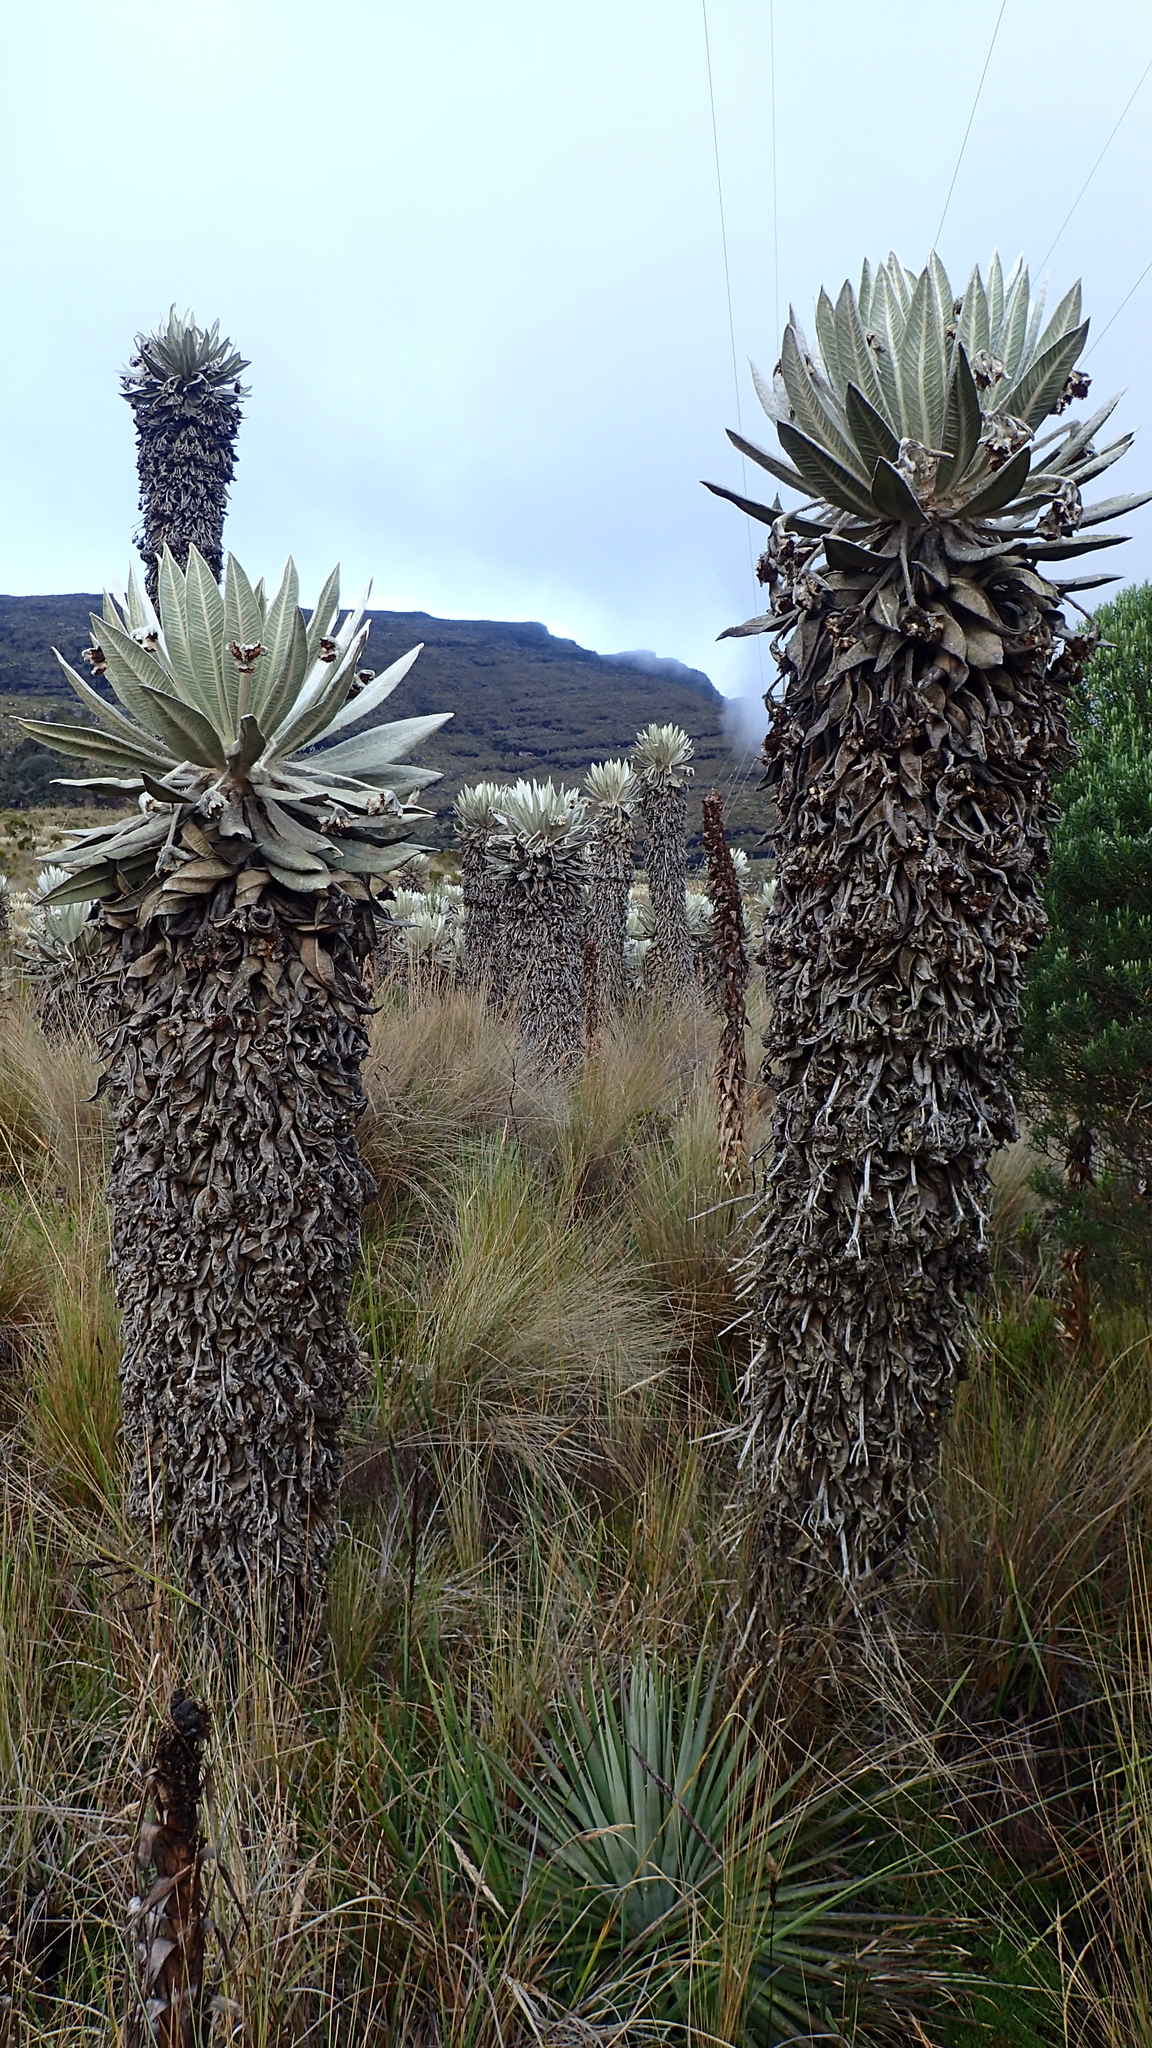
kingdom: Plantae
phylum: Tracheophyta
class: Magnoliopsida
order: Asterales
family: Asteraceae
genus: Espeletia
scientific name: Espeletia incana
